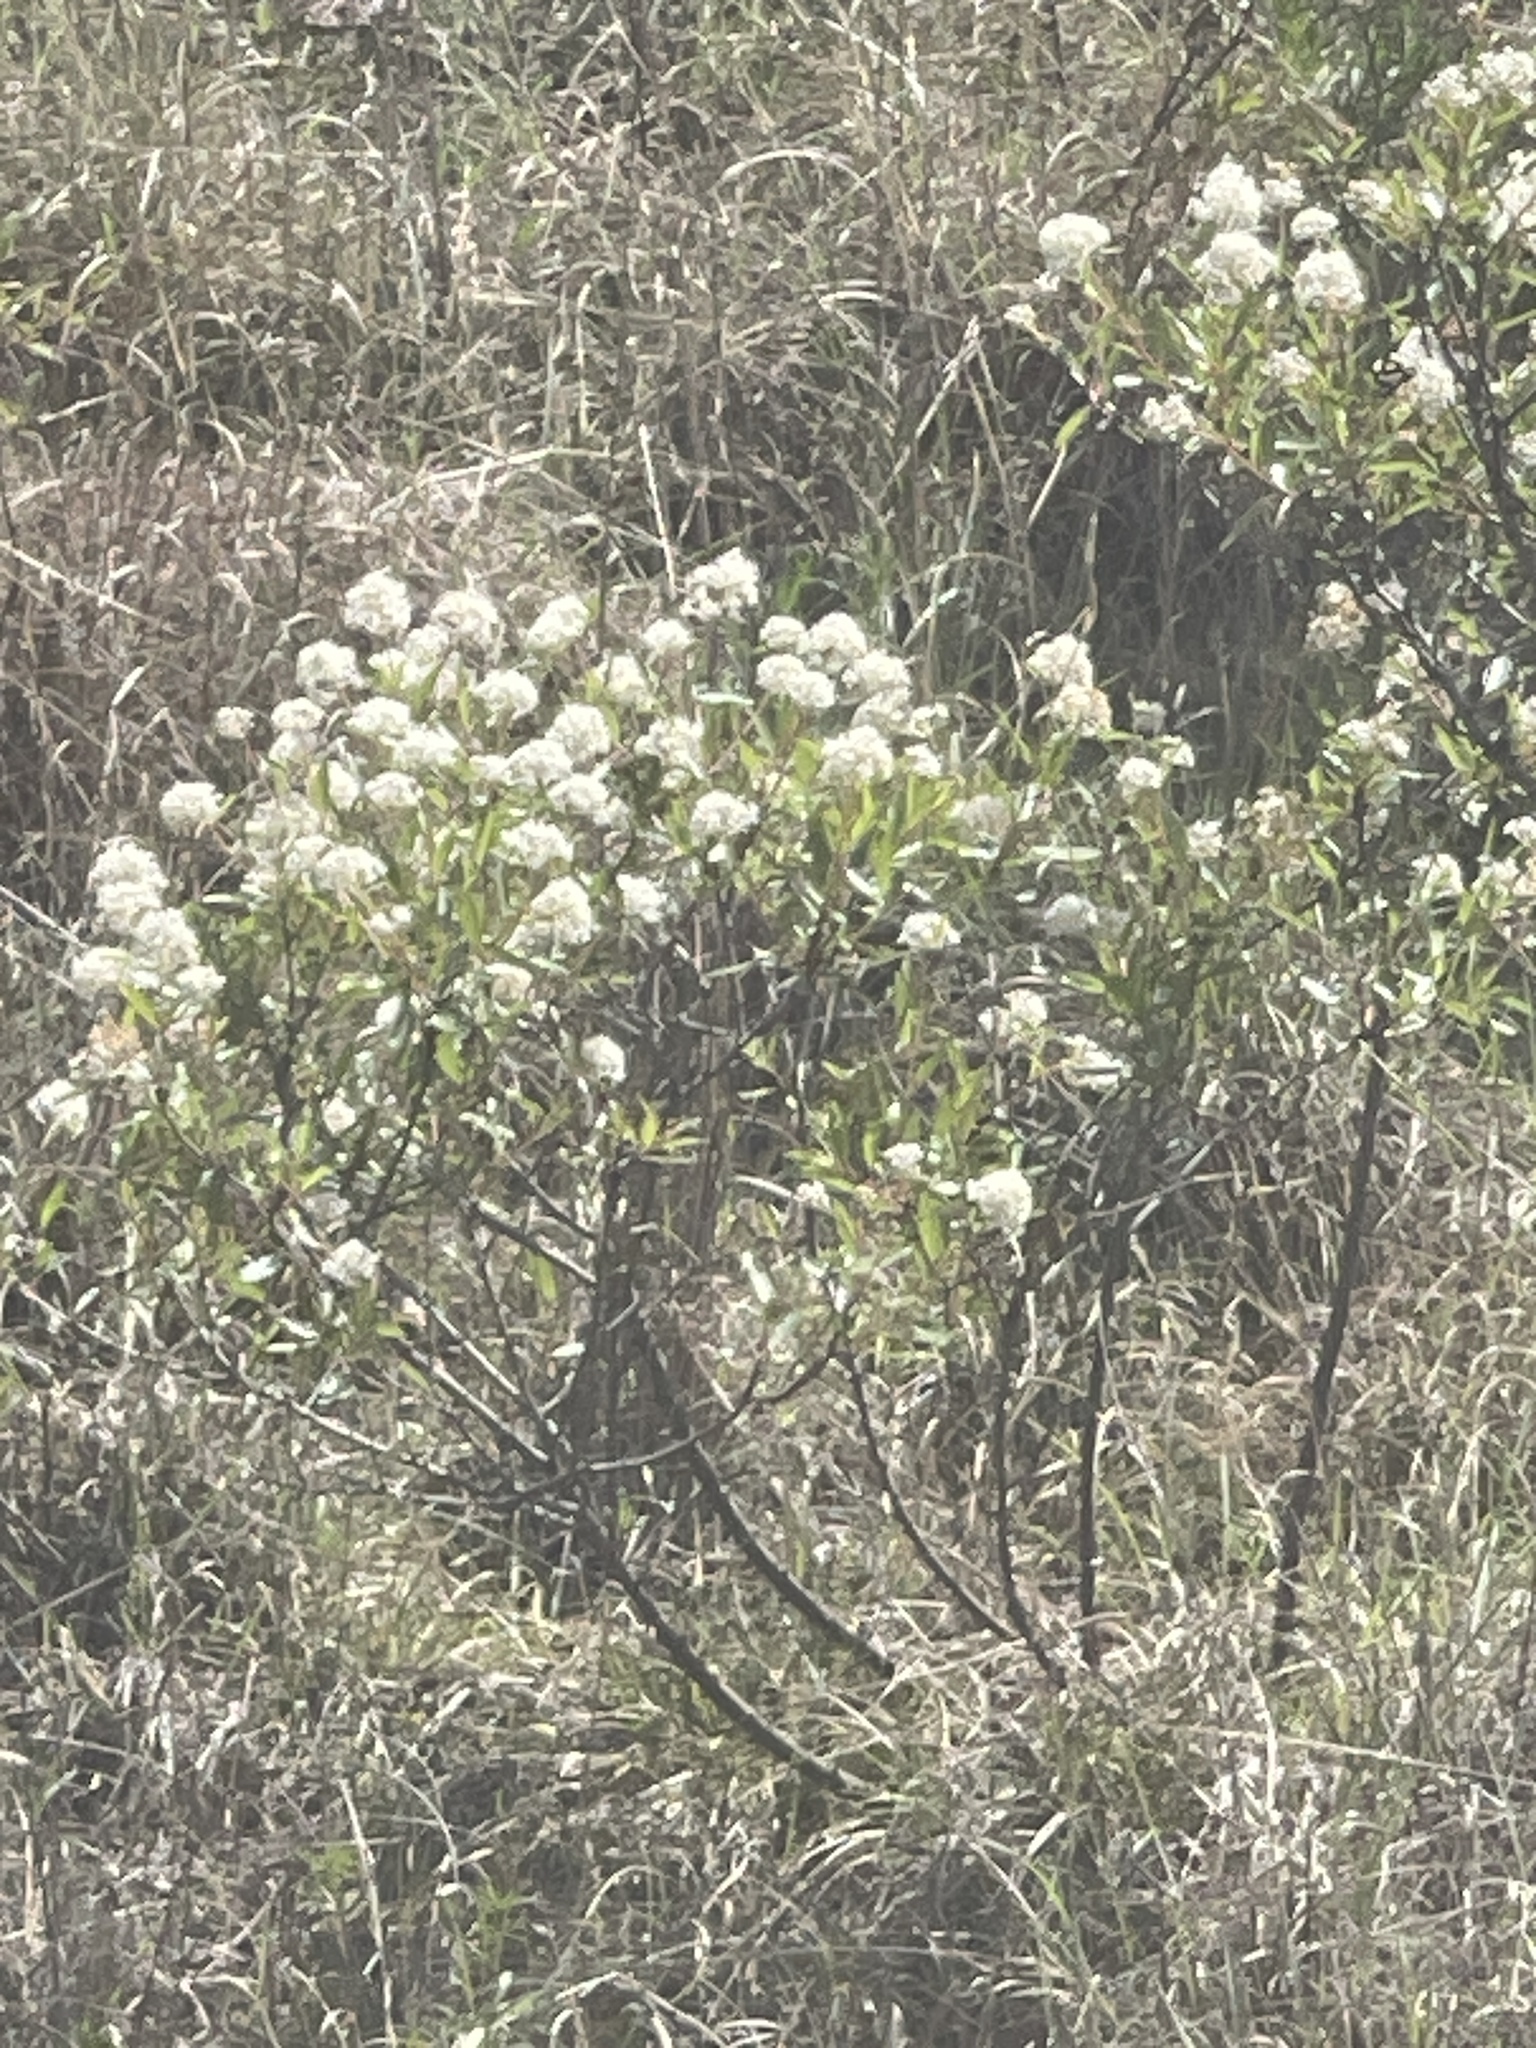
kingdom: Plantae
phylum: Tracheophyta
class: Magnoliopsida
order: Rosales
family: Rhamnaceae
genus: Ceanothus
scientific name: Ceanothus herbaceus
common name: Inland ceanothus
